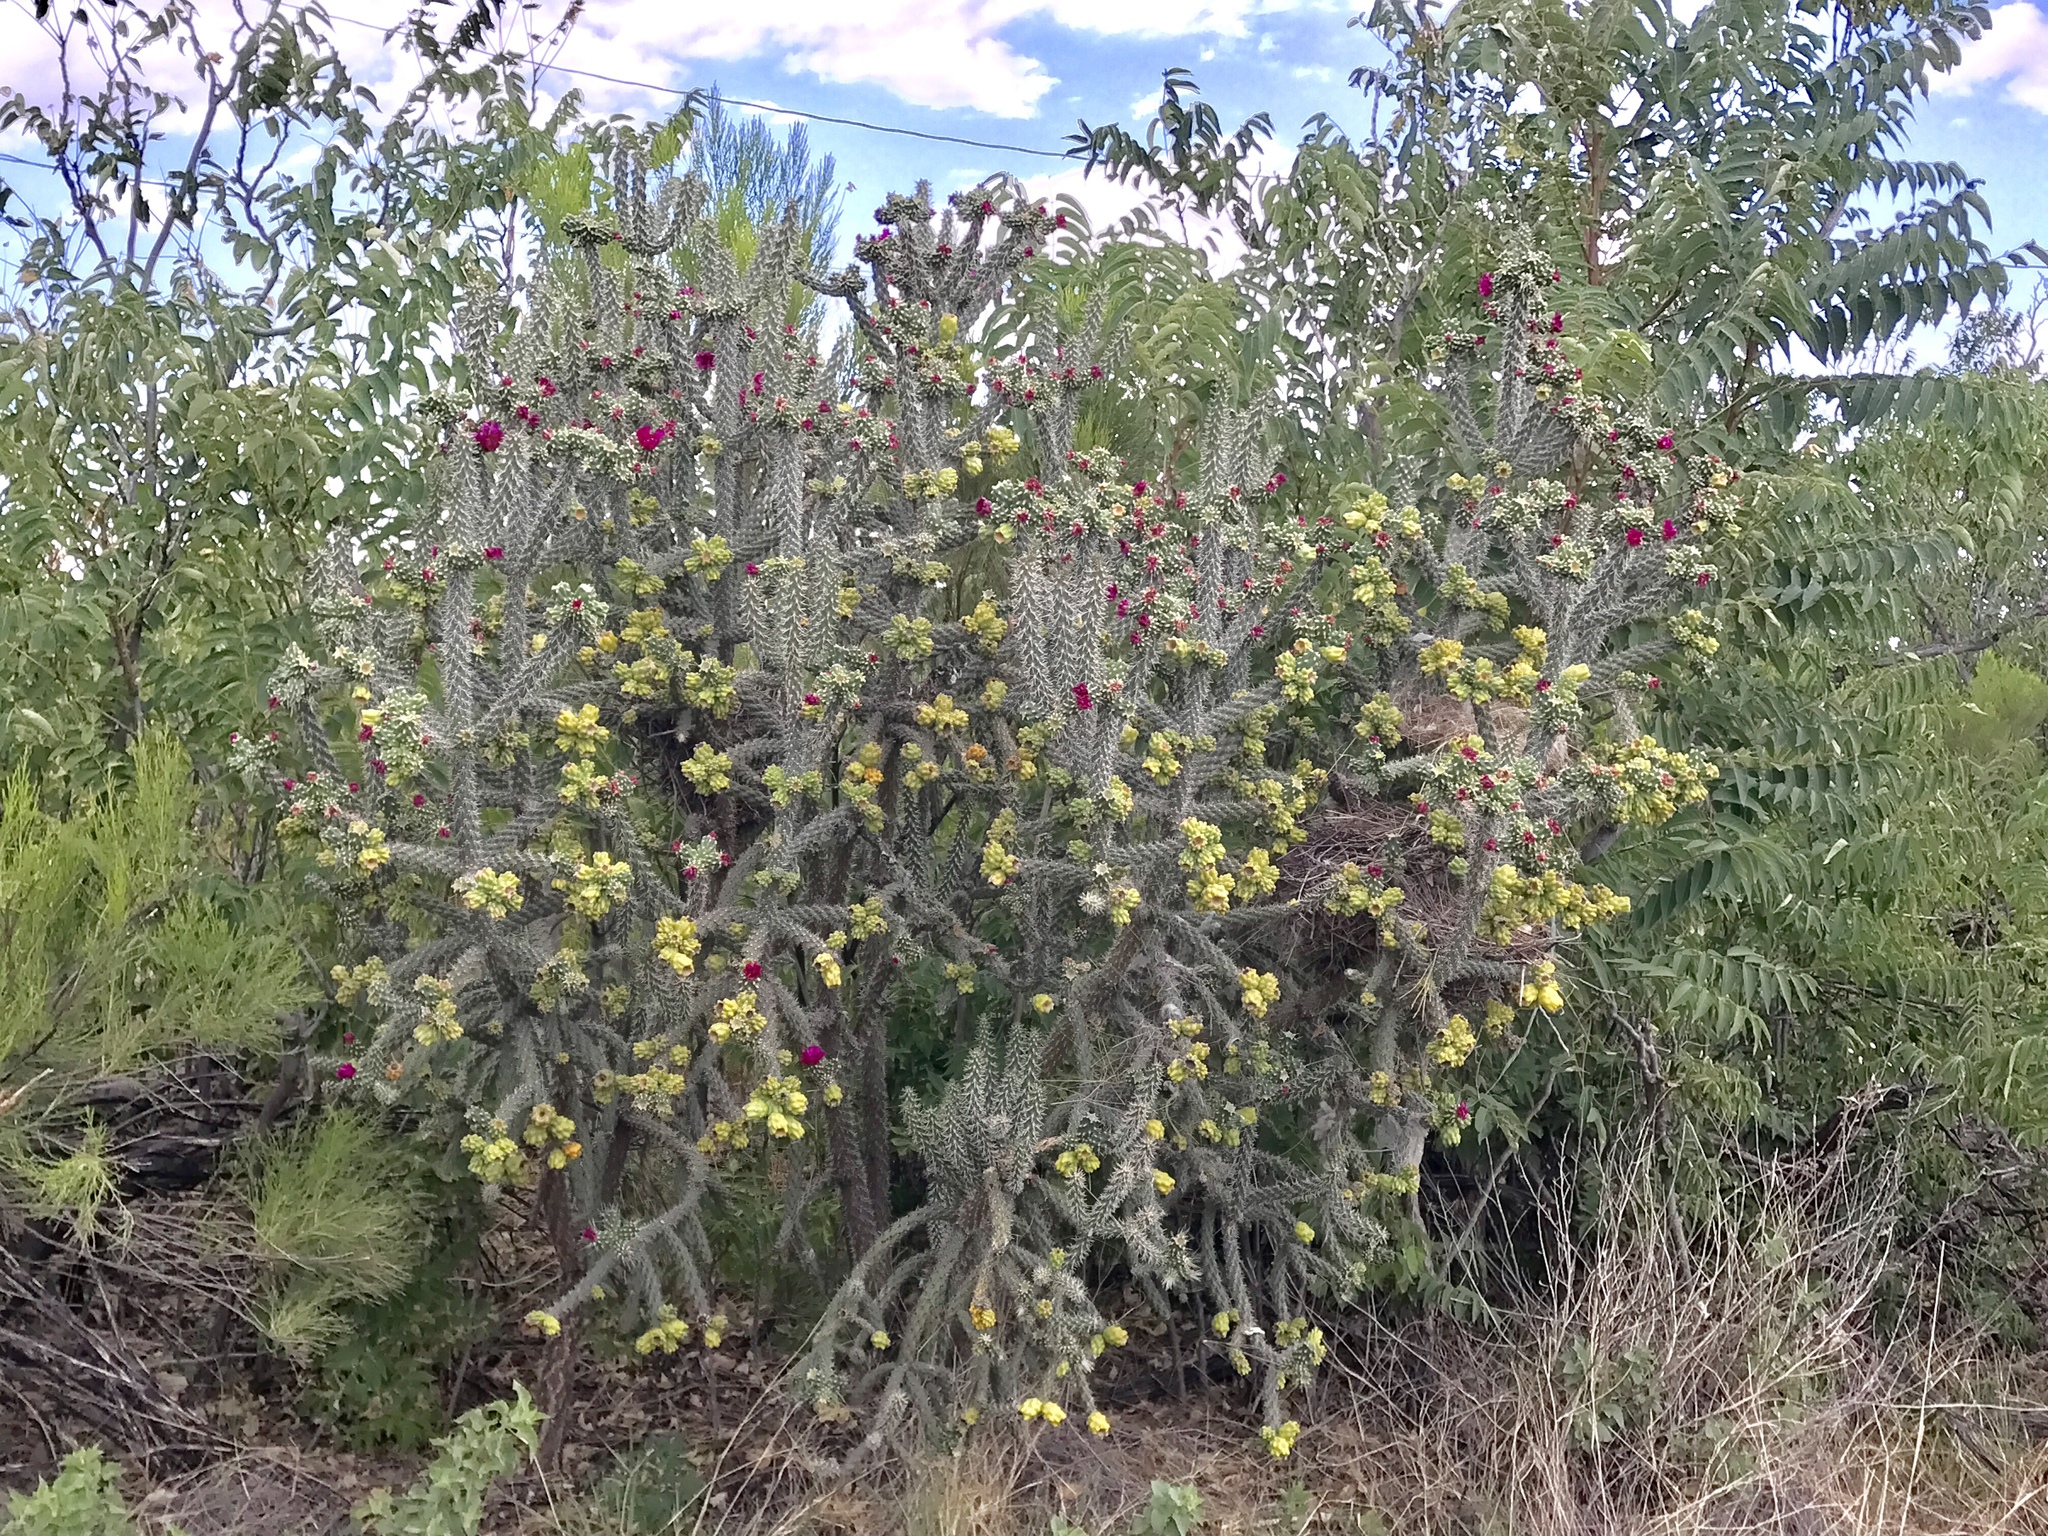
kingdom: Plantae
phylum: Tracheophyta
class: Magnoliopsida
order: Caryophyllales
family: Cactaceae
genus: Cylindropuntia
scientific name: Cylindropuntia imbricata
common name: Candelabrum cactus
